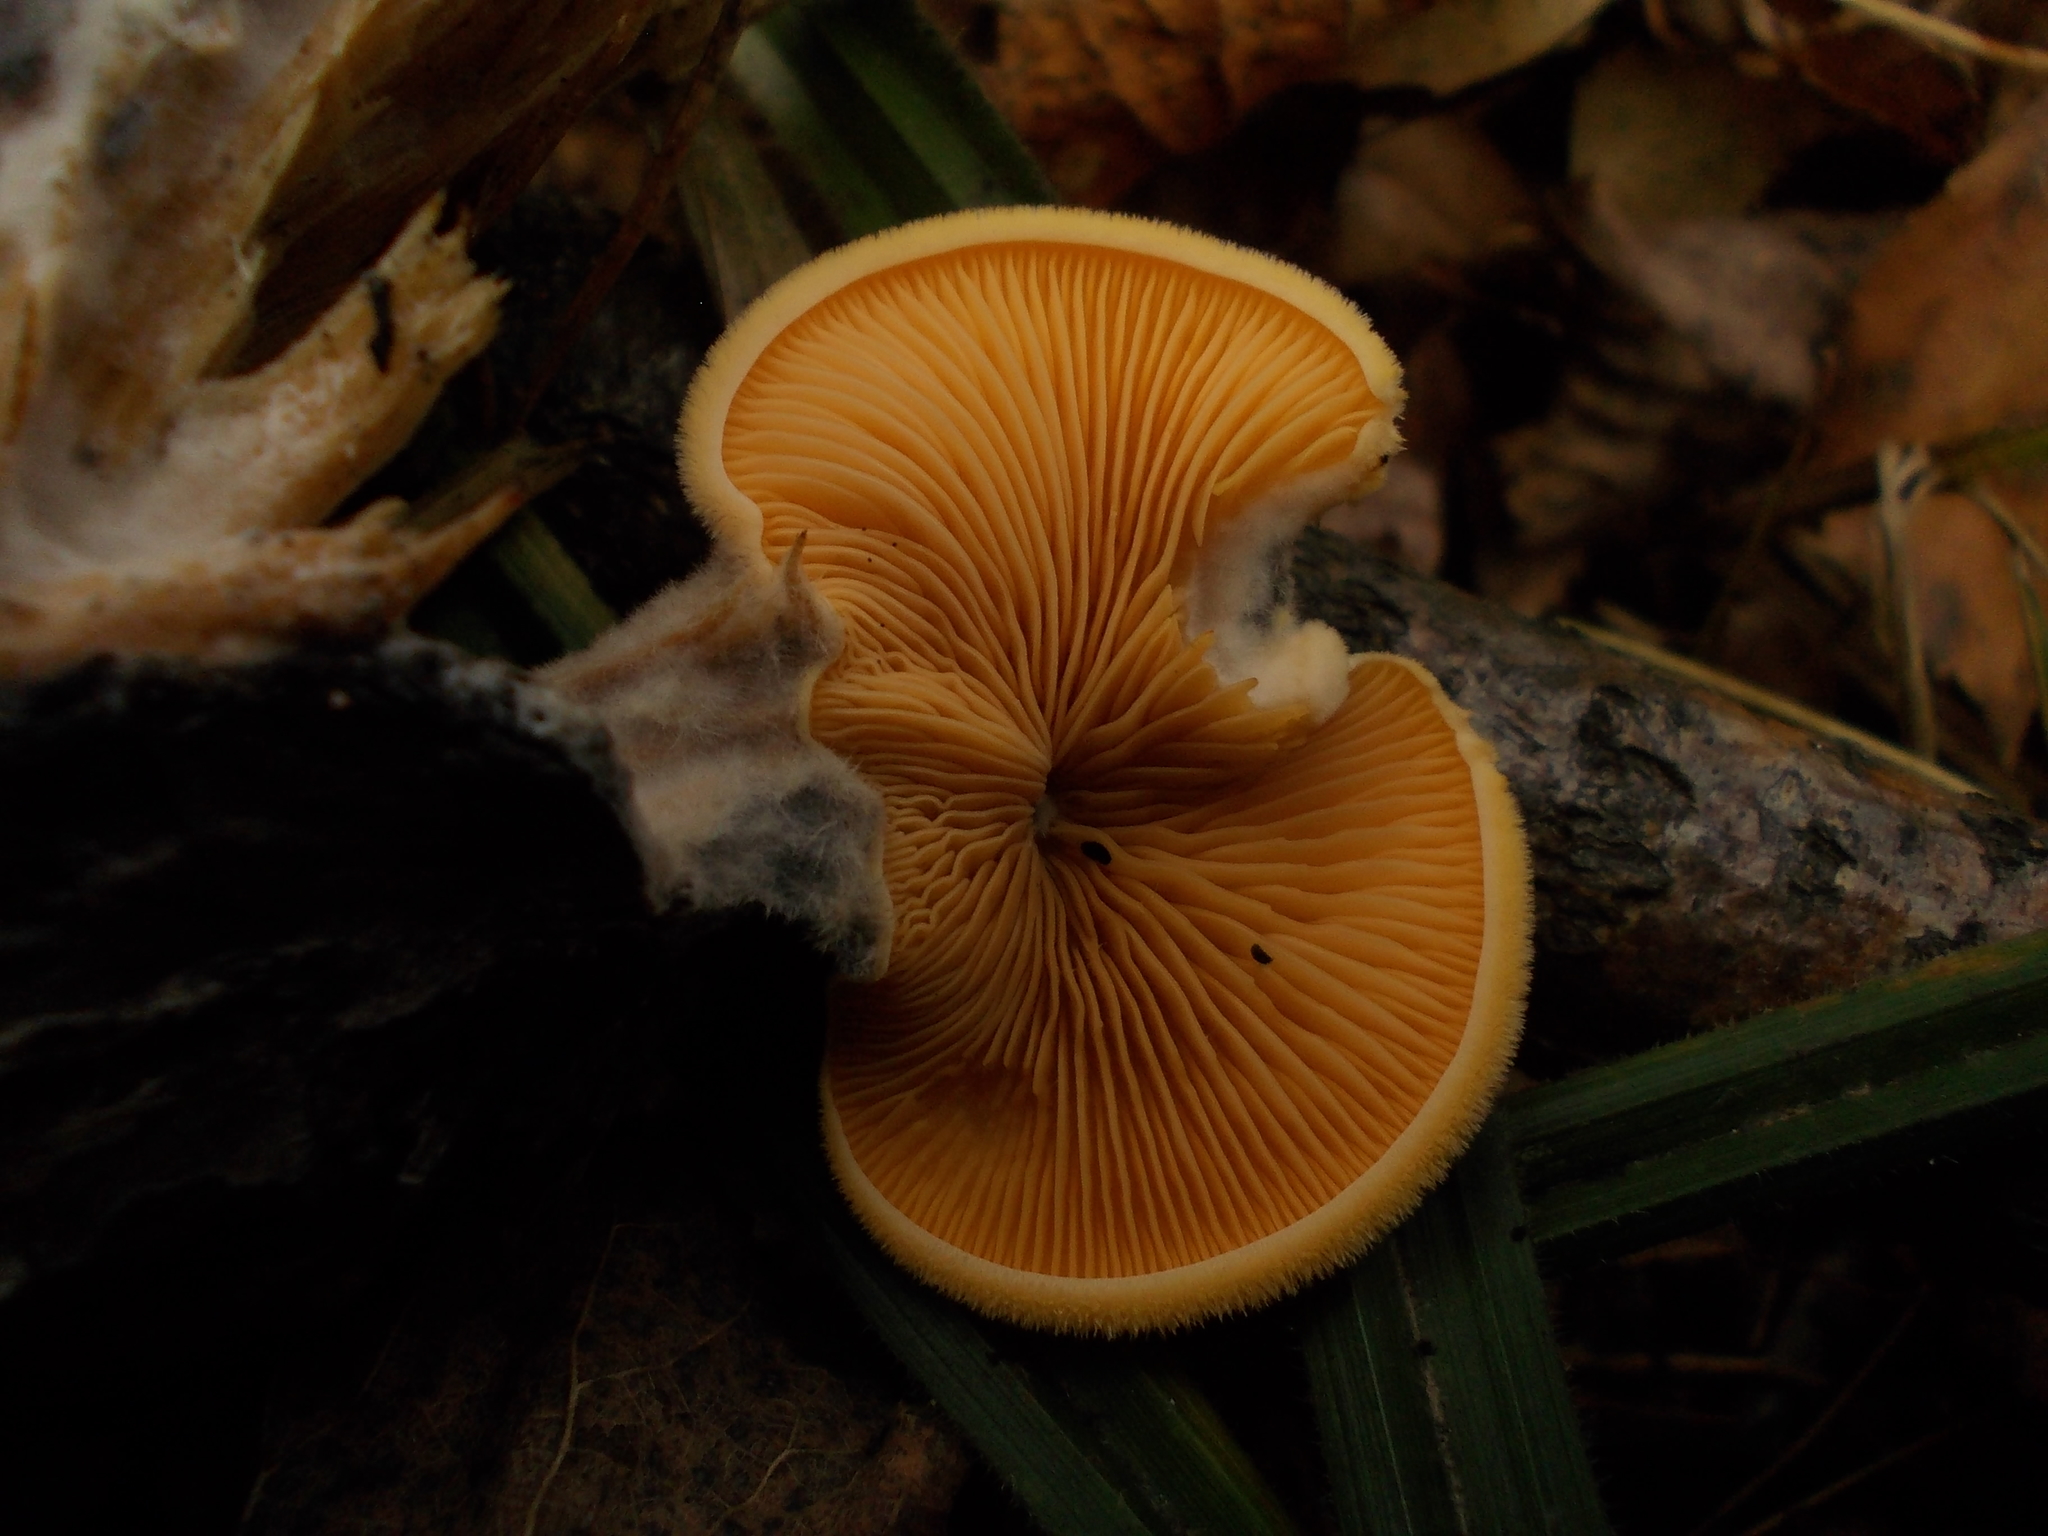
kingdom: Fungi
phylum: Basidiomycota
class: Agaricomycetes
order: Agaricales
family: Phyllotopsidaceae
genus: Phyllotopsis
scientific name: Phyllotopsis nidulans
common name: Orange mock oyster
